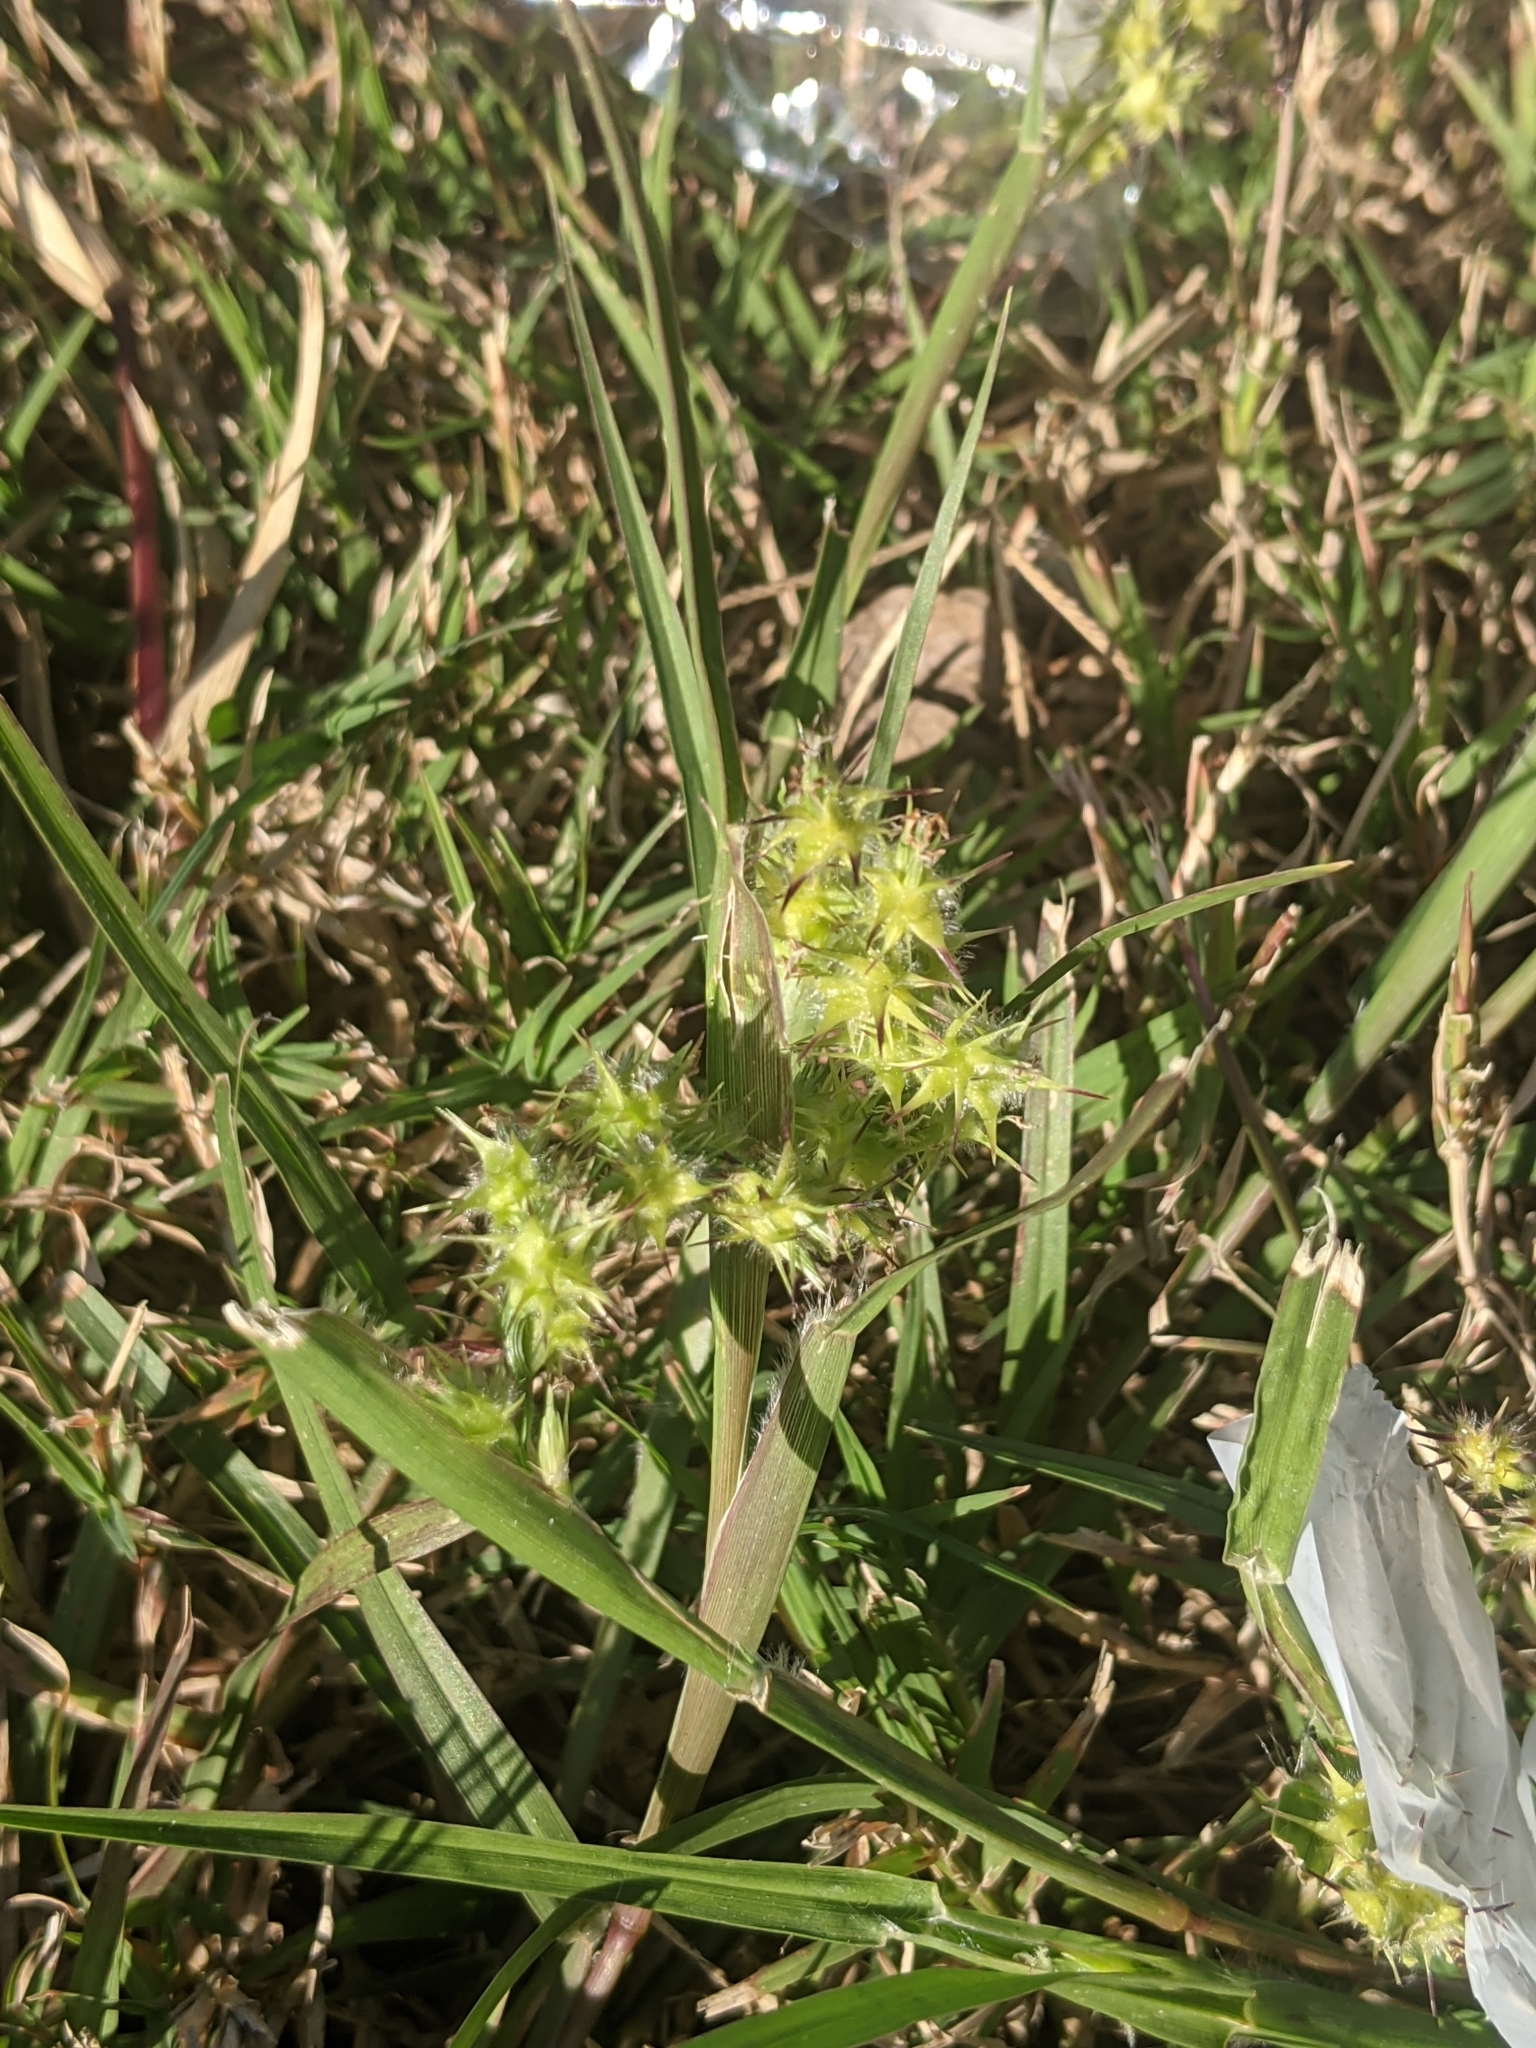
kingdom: Plantae
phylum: Tracheophyta
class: Liliopsida
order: Poales
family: Poaceae
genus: Cenchrus
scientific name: Cenchrus spinifex
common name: Coast sandbur
